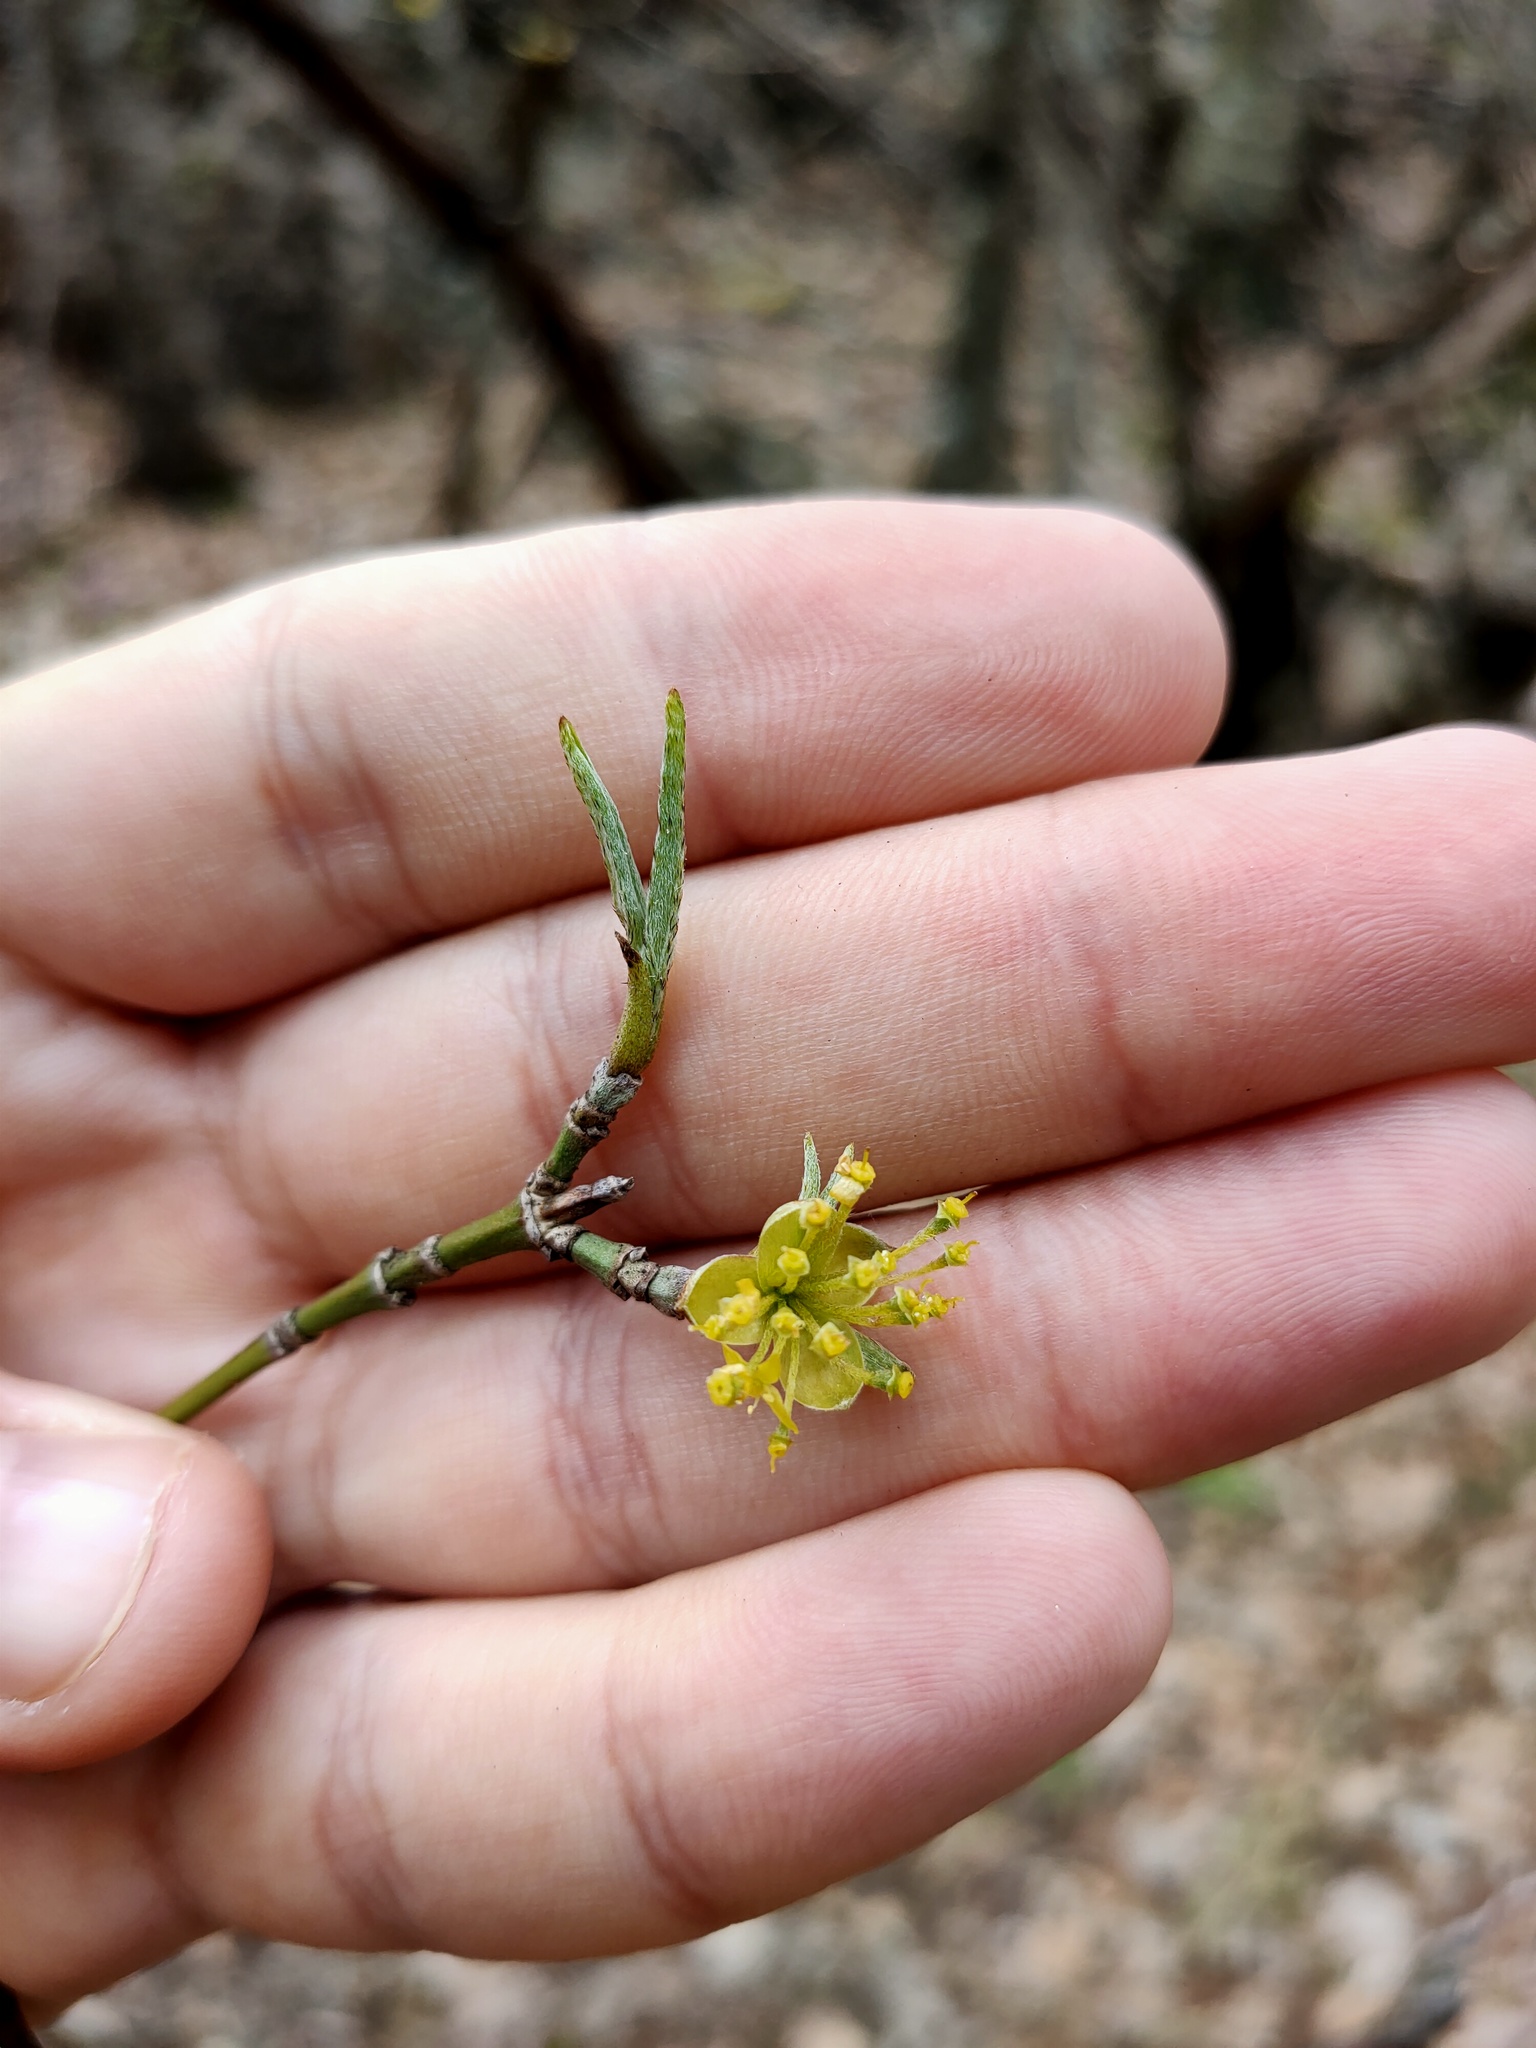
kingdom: Plantae
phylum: Tracheophyta
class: Magnoliopsida
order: Cornales
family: Cornaceae
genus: Cornus
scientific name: Cornus mas
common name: Cornelian-cherry
